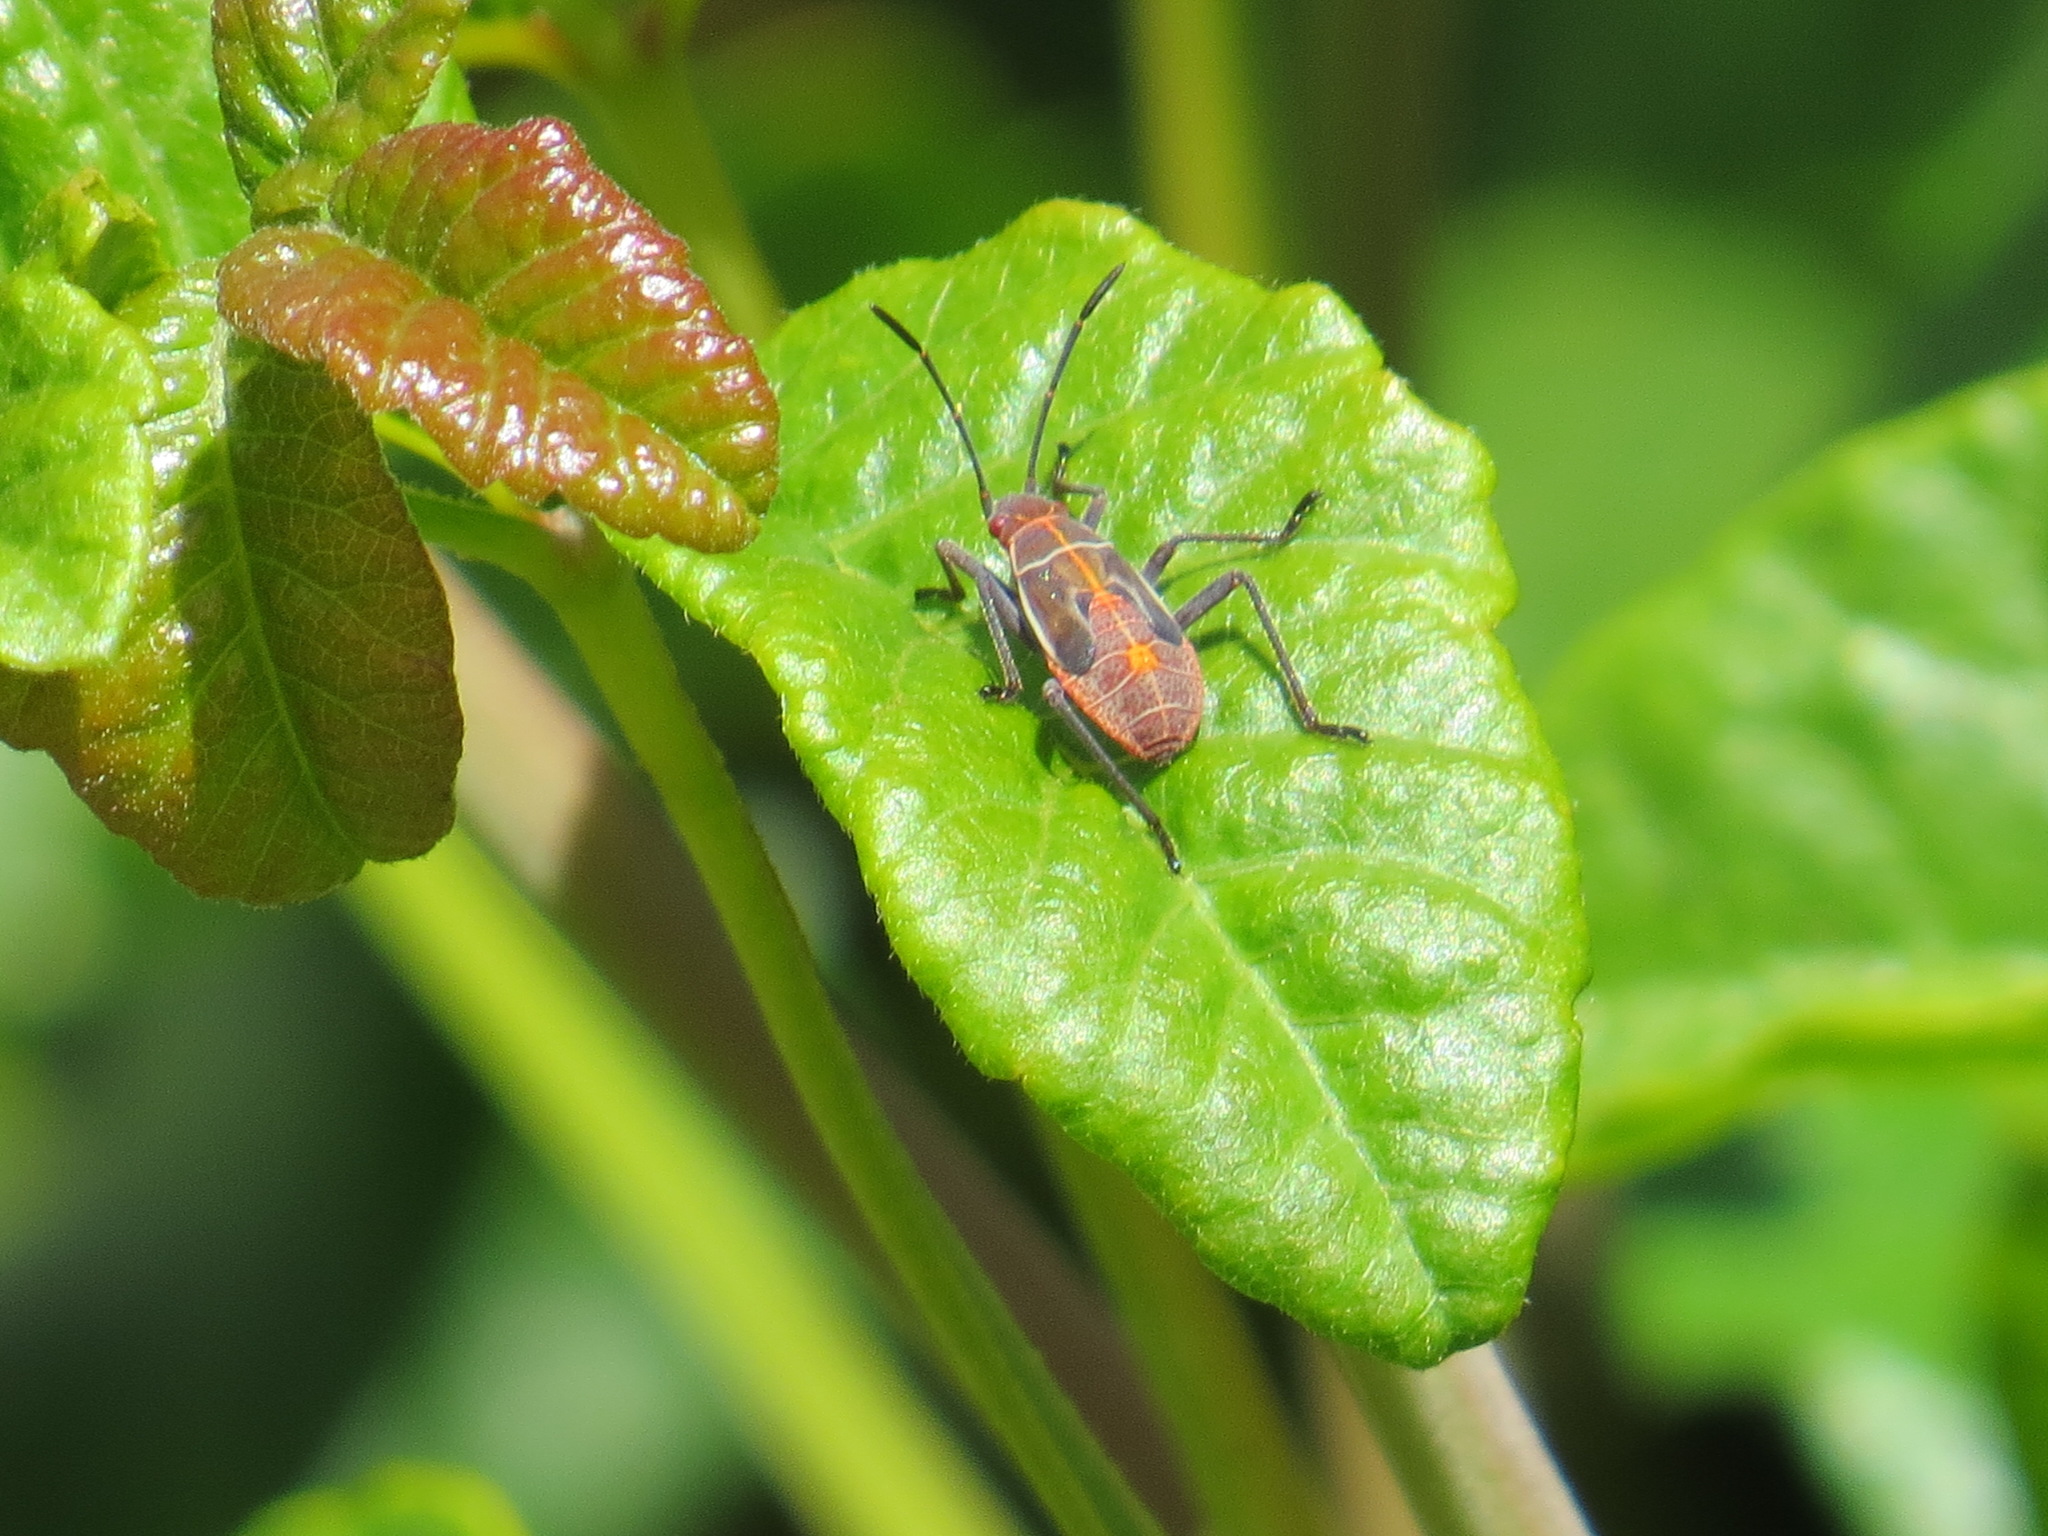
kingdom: Animalia
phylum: Arthropoda
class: Insecta
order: Hemiptera
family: Rhopalidae
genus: Boisea
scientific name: Boisea rubrolineata
